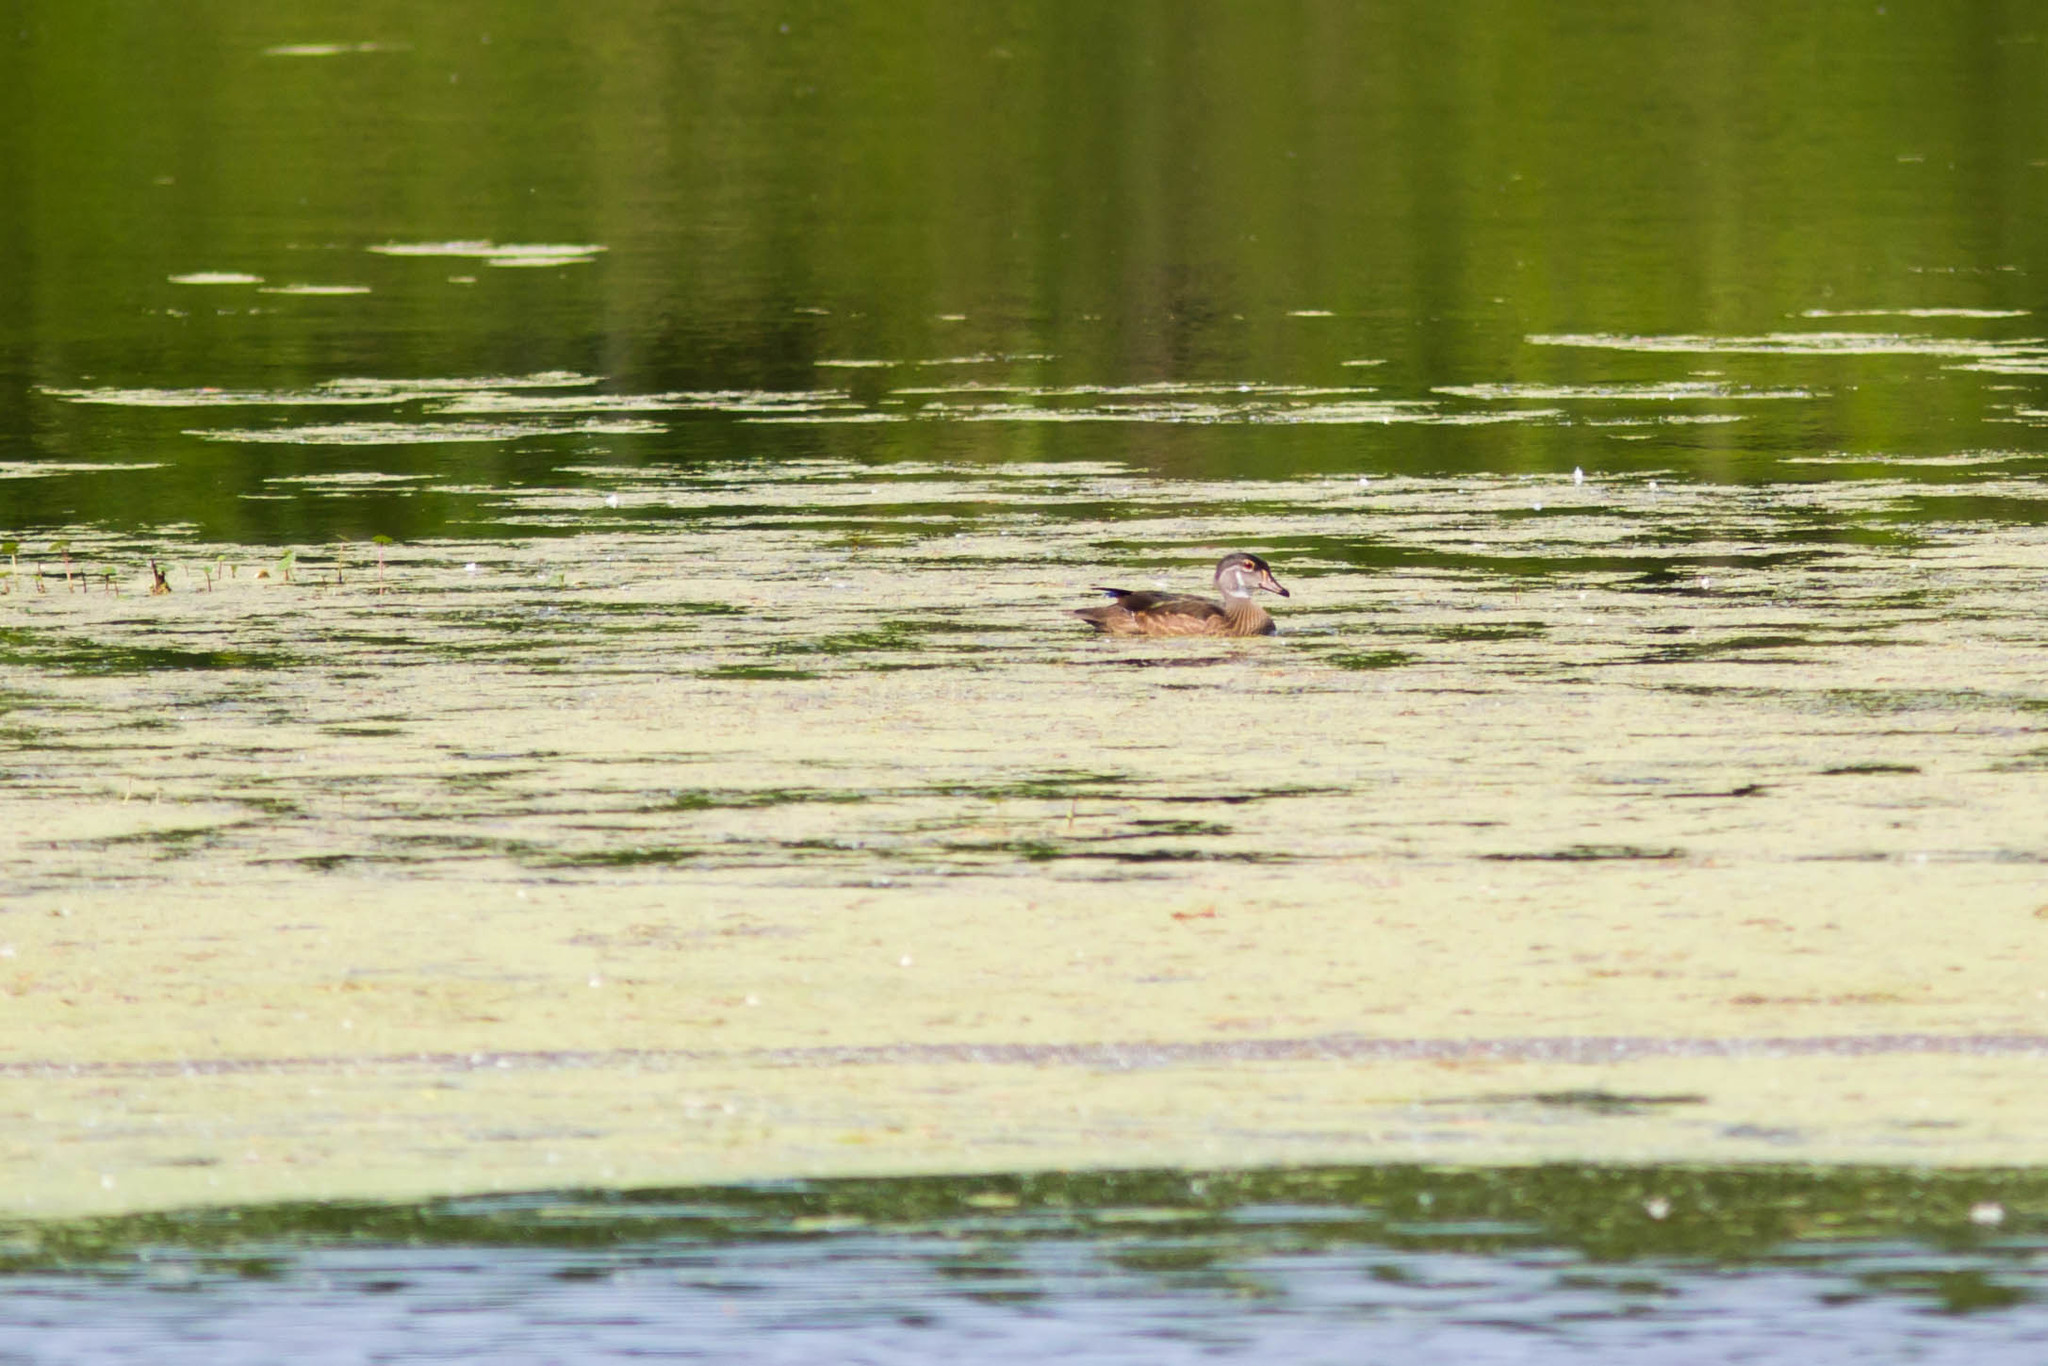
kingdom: Animalia
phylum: Chordata
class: Aves
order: Anseriformes
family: Anatidae
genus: Aix
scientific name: Aix sponsa
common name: Wood duck
